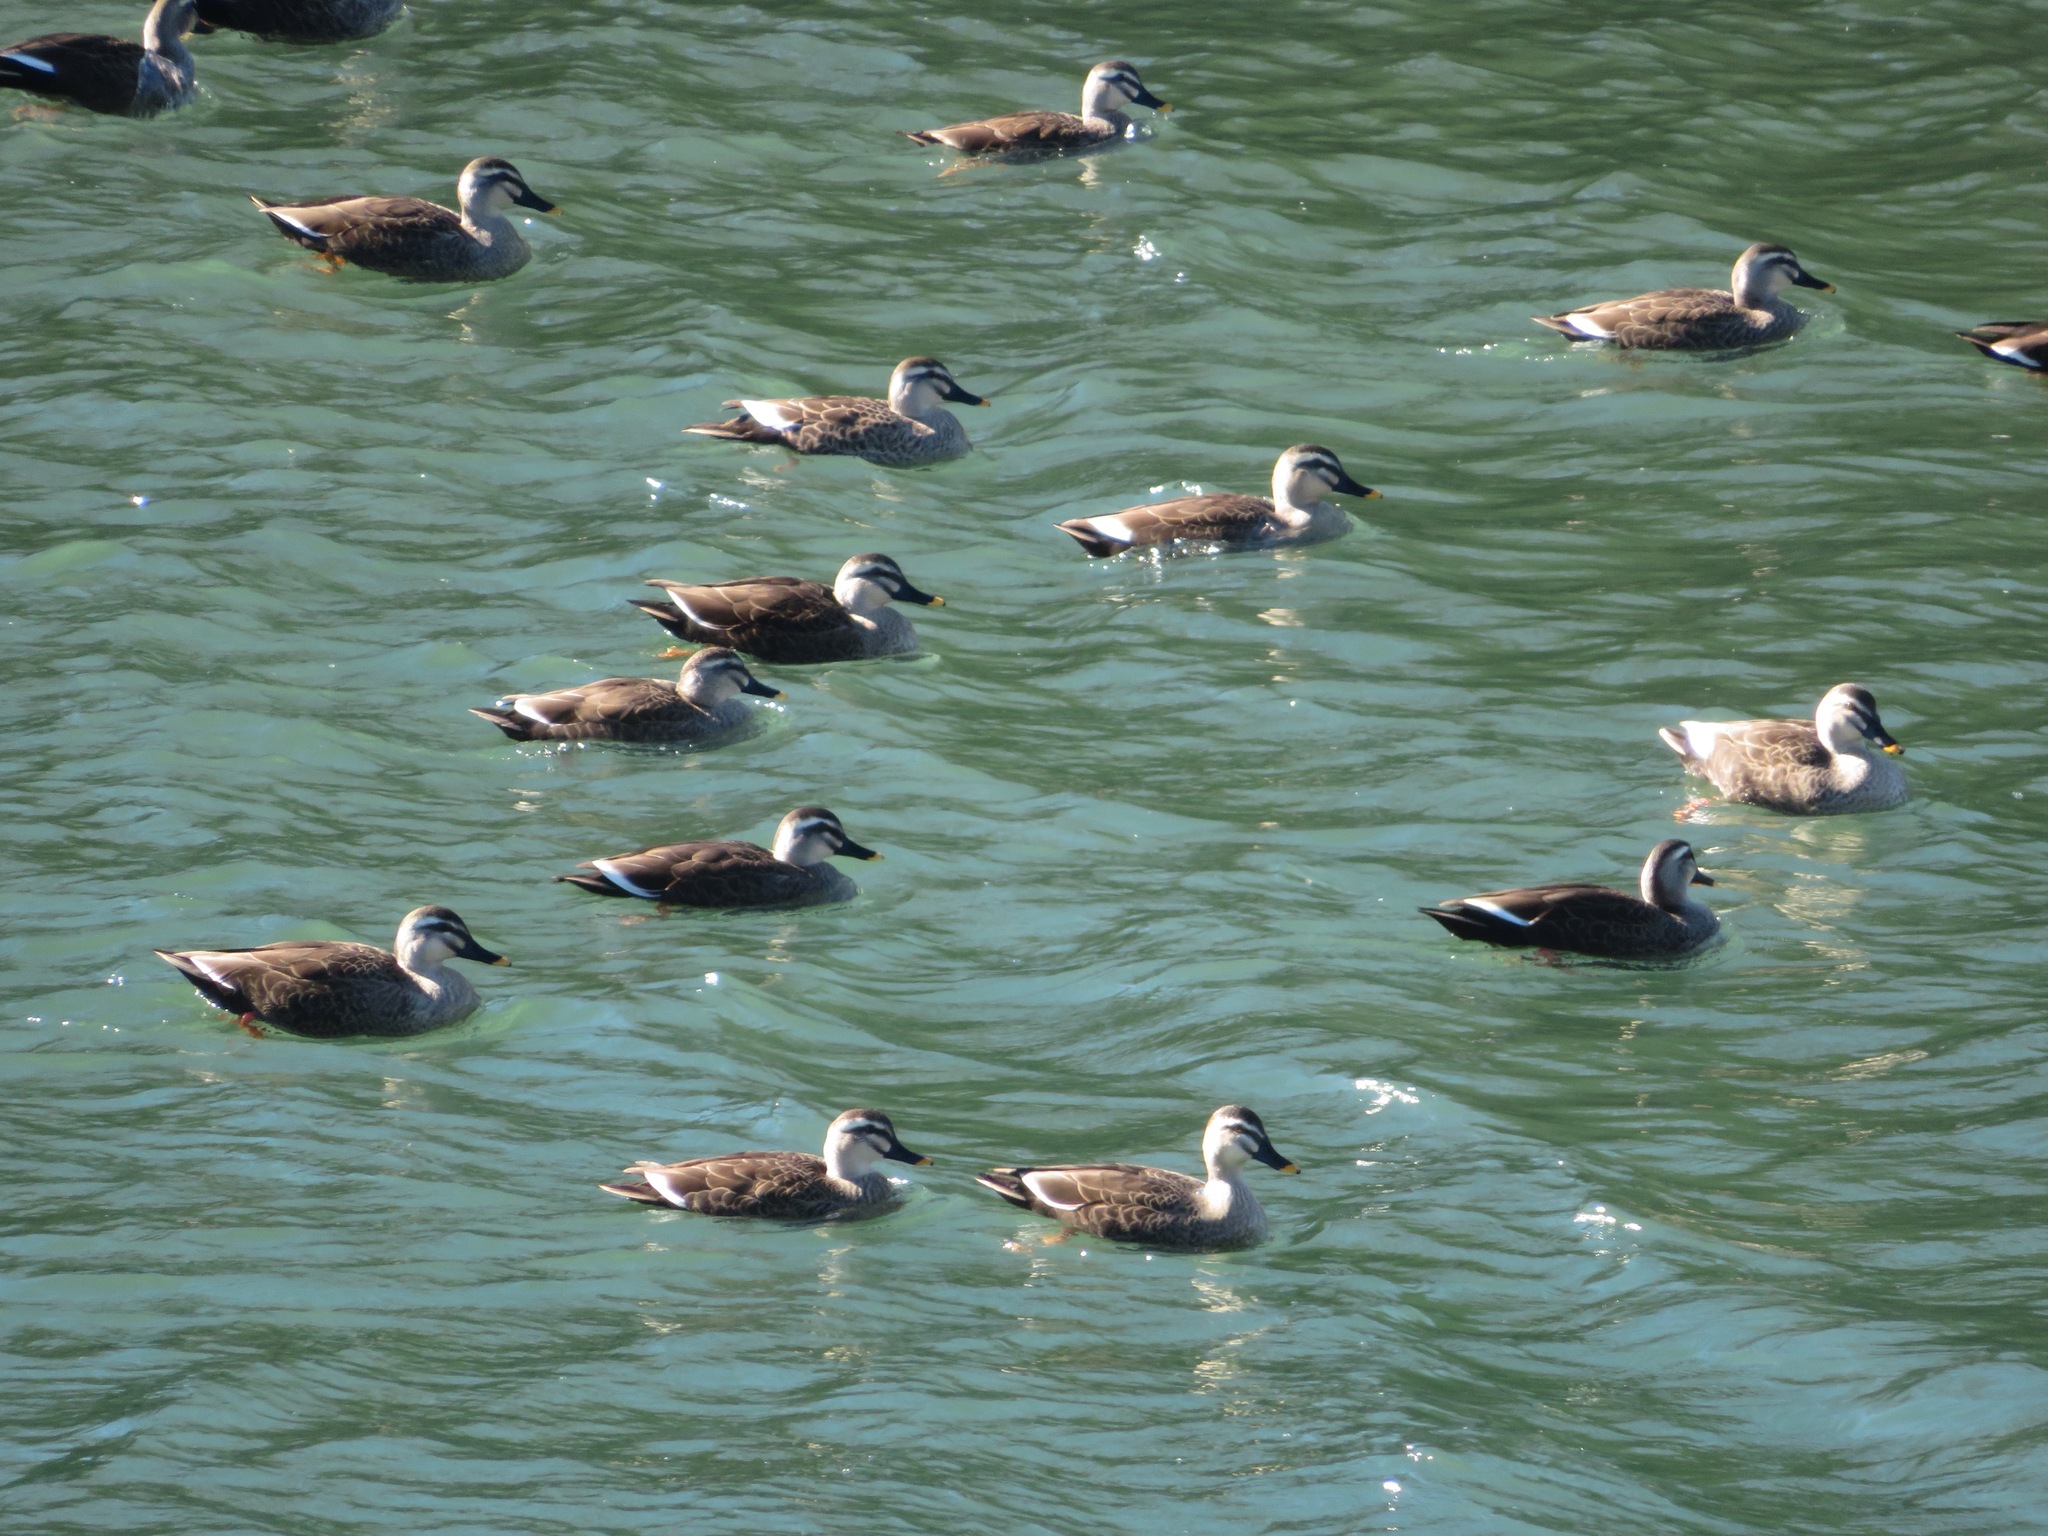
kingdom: Animalia
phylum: Chordata
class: Aves
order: Anseriformes
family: Anatidae
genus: Anas
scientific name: Anas zonorhyncha
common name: Eastern spot-billed duck
